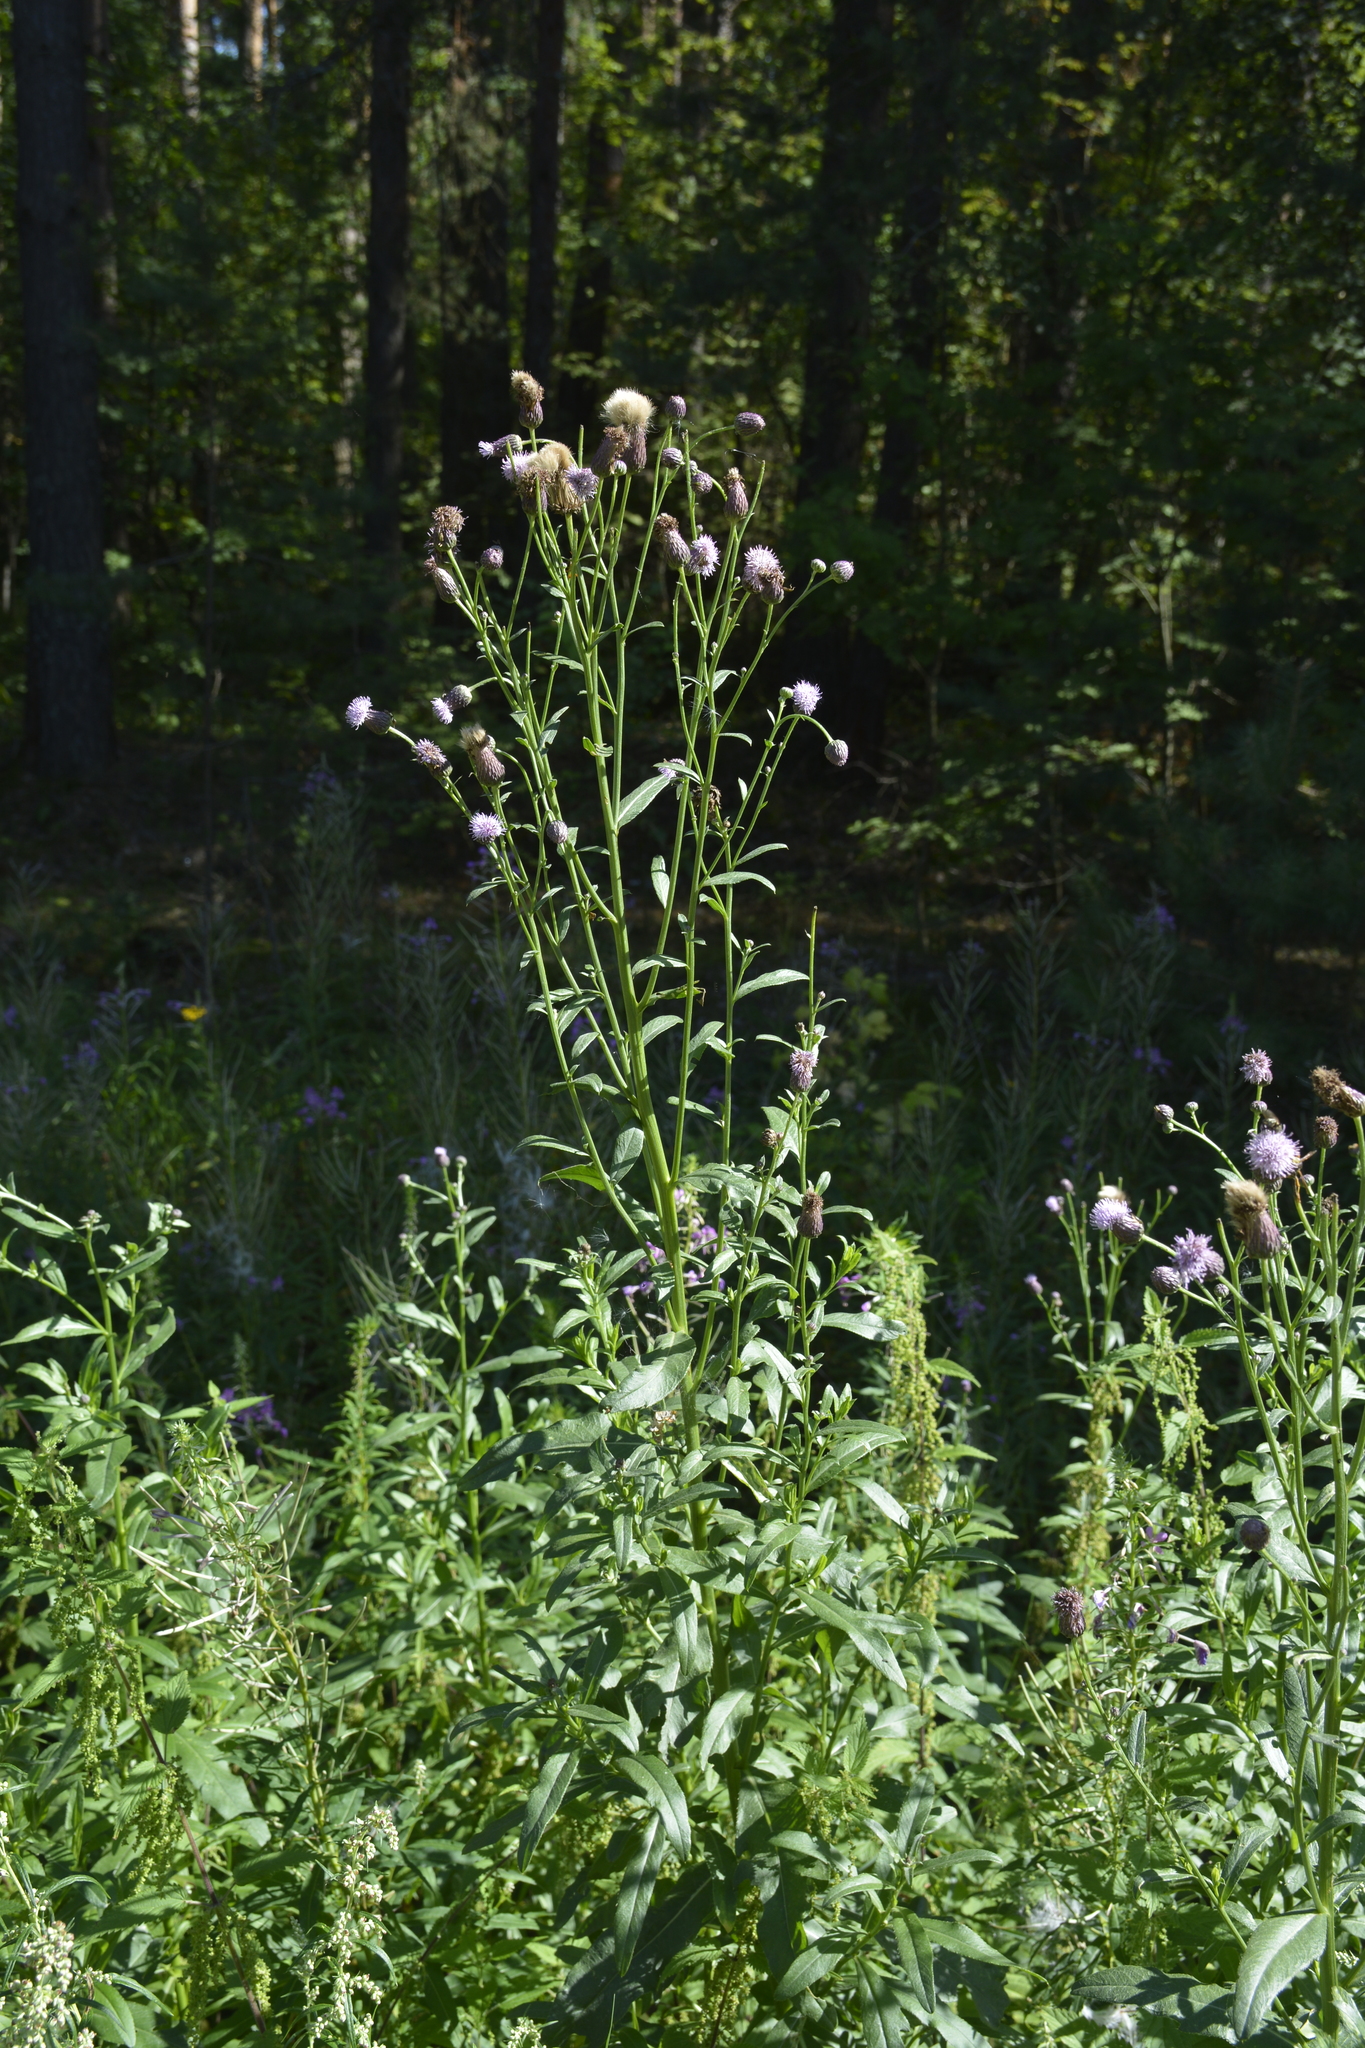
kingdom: Plantae
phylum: Tracheophyta
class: Magnoliopsida
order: Asterales
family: Asteraceae
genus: Cirsium
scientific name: Cirsium arvense
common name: Creeping thistle
